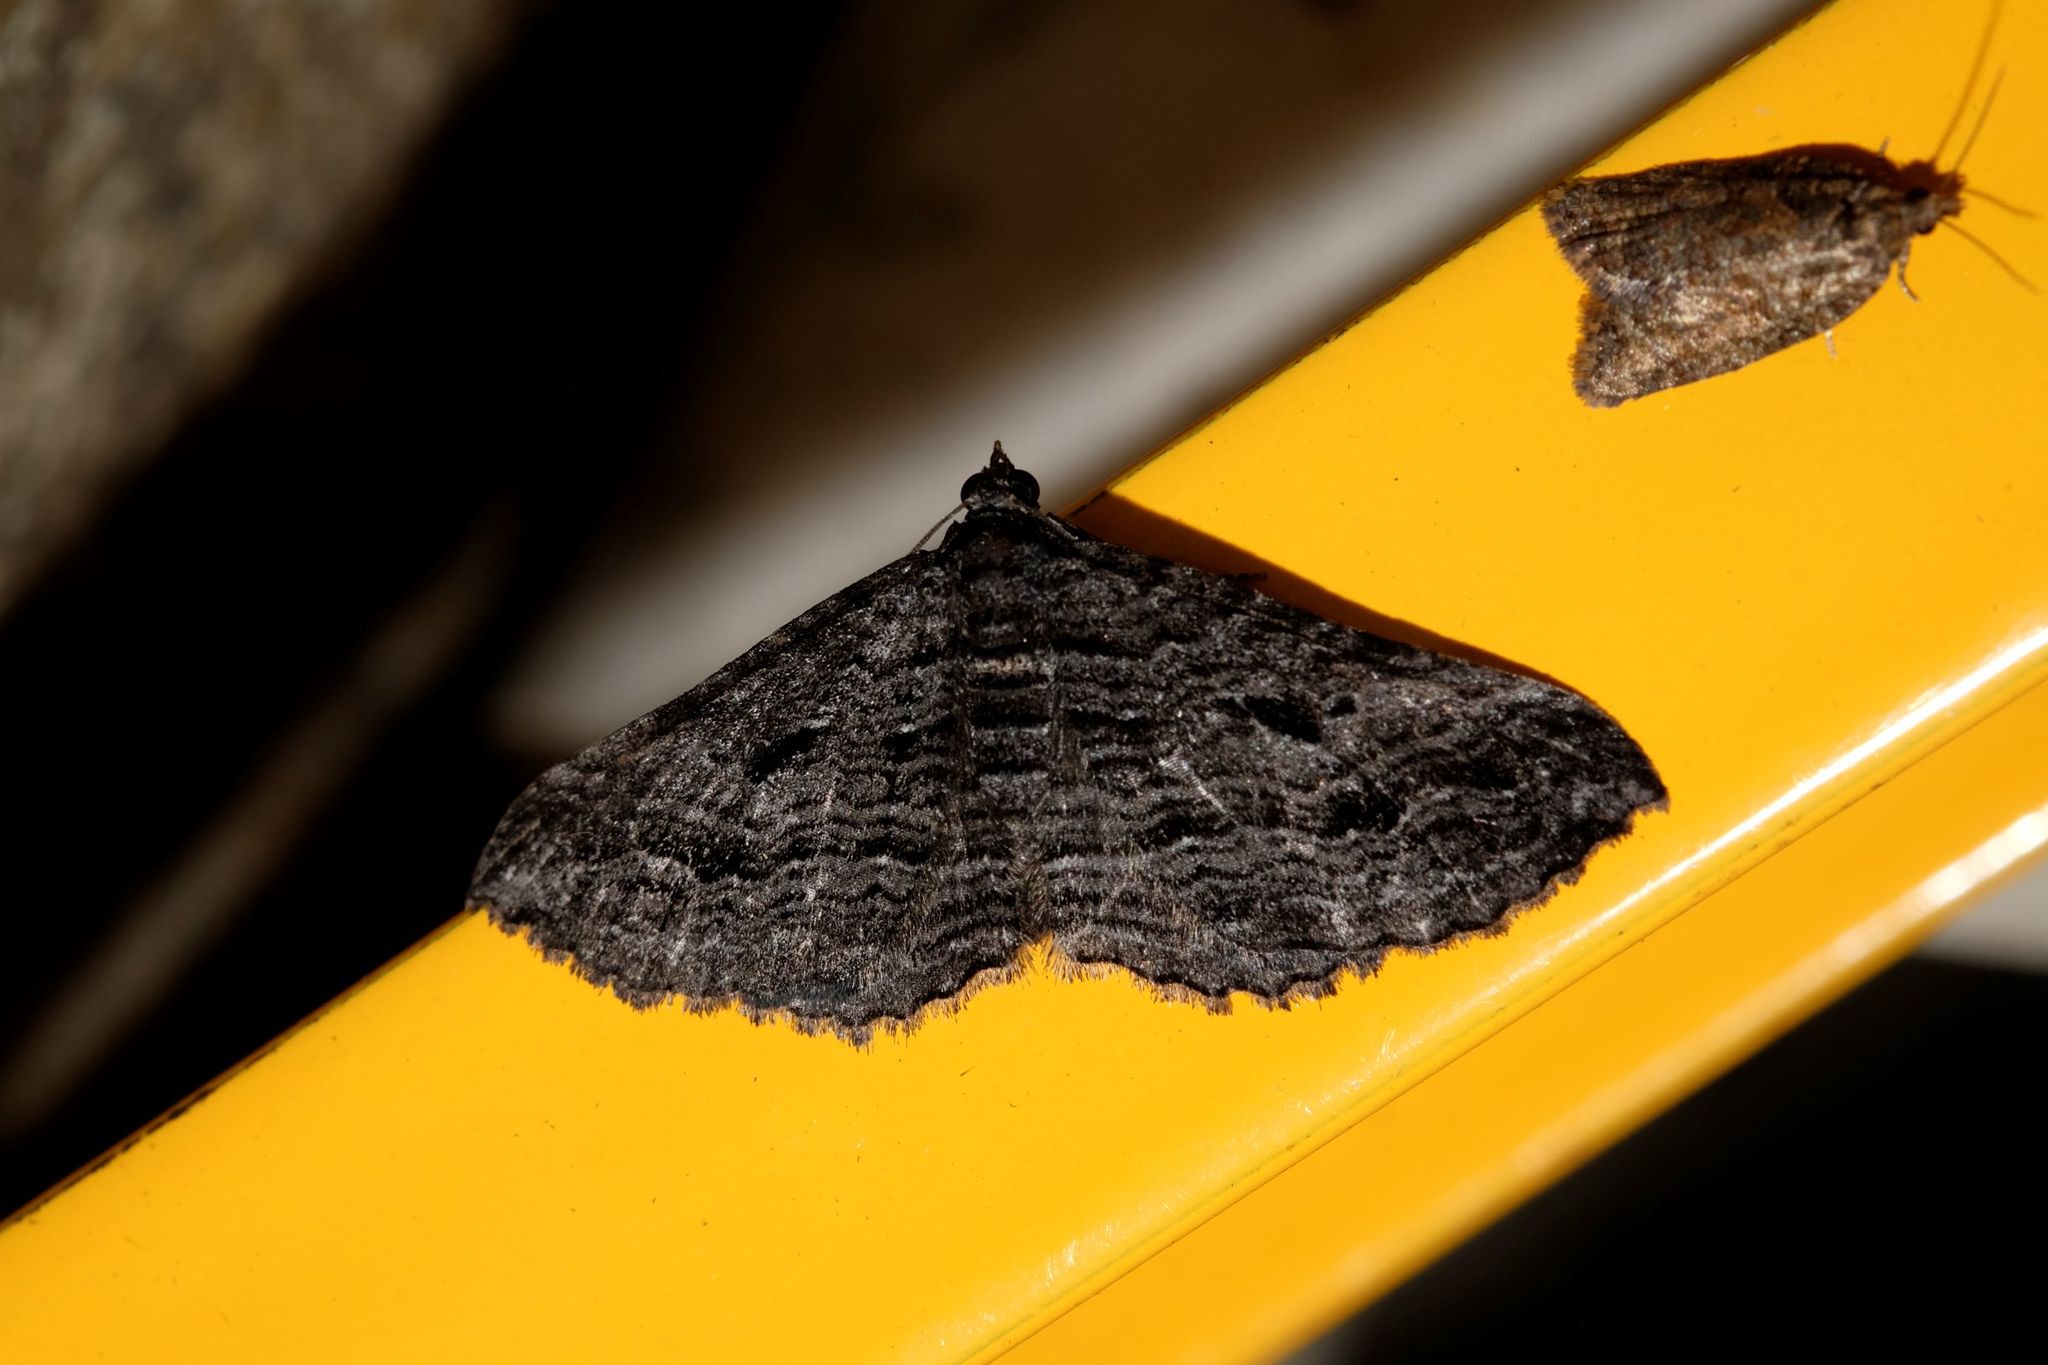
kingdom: Animalia
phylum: Arthropoda
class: Insecta
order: Lepidoptera
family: Geometridae
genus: Chrysolarentia
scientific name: Chrysolarentia severata
